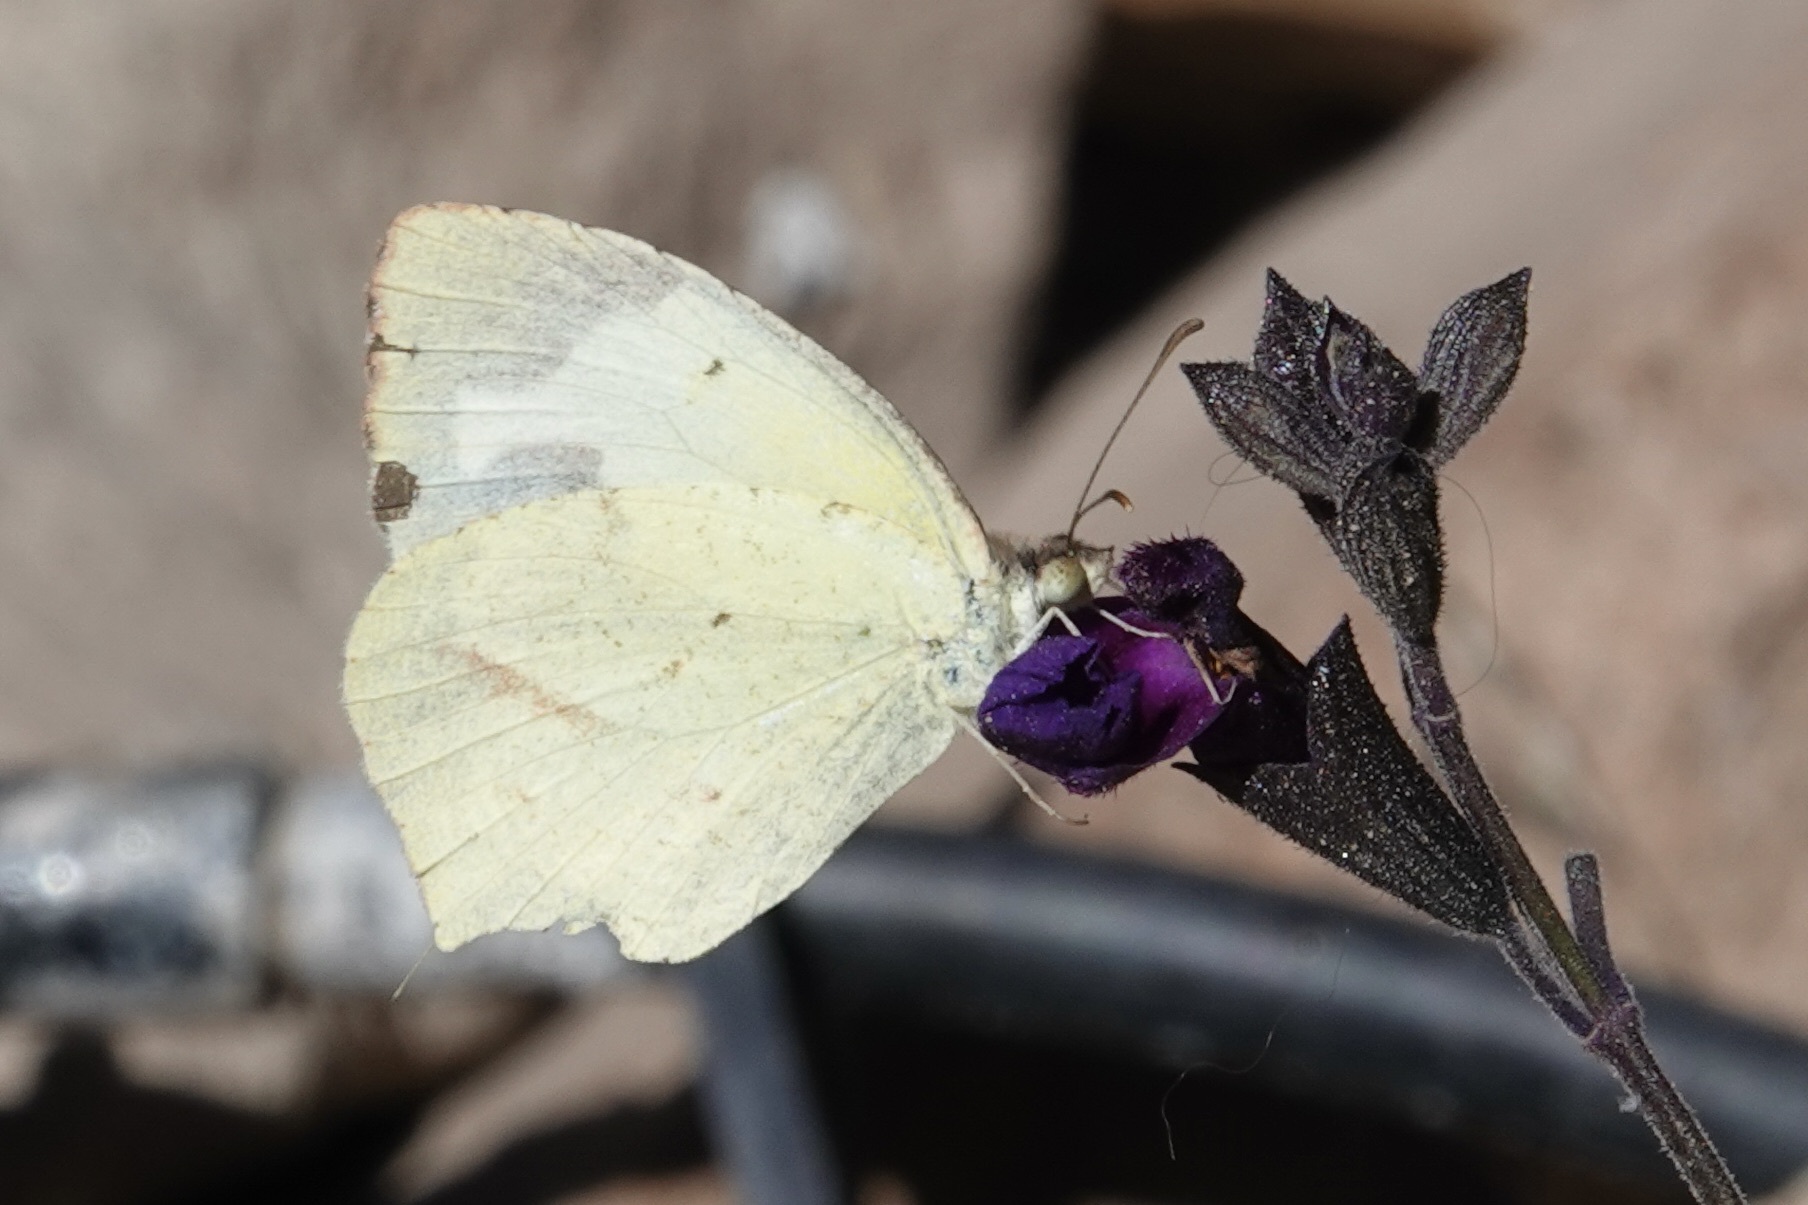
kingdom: Animalia
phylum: Arthropoda
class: Insecta
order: Lepidoptera
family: Pieridae
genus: Abaeis
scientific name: Abaeis mexicana
